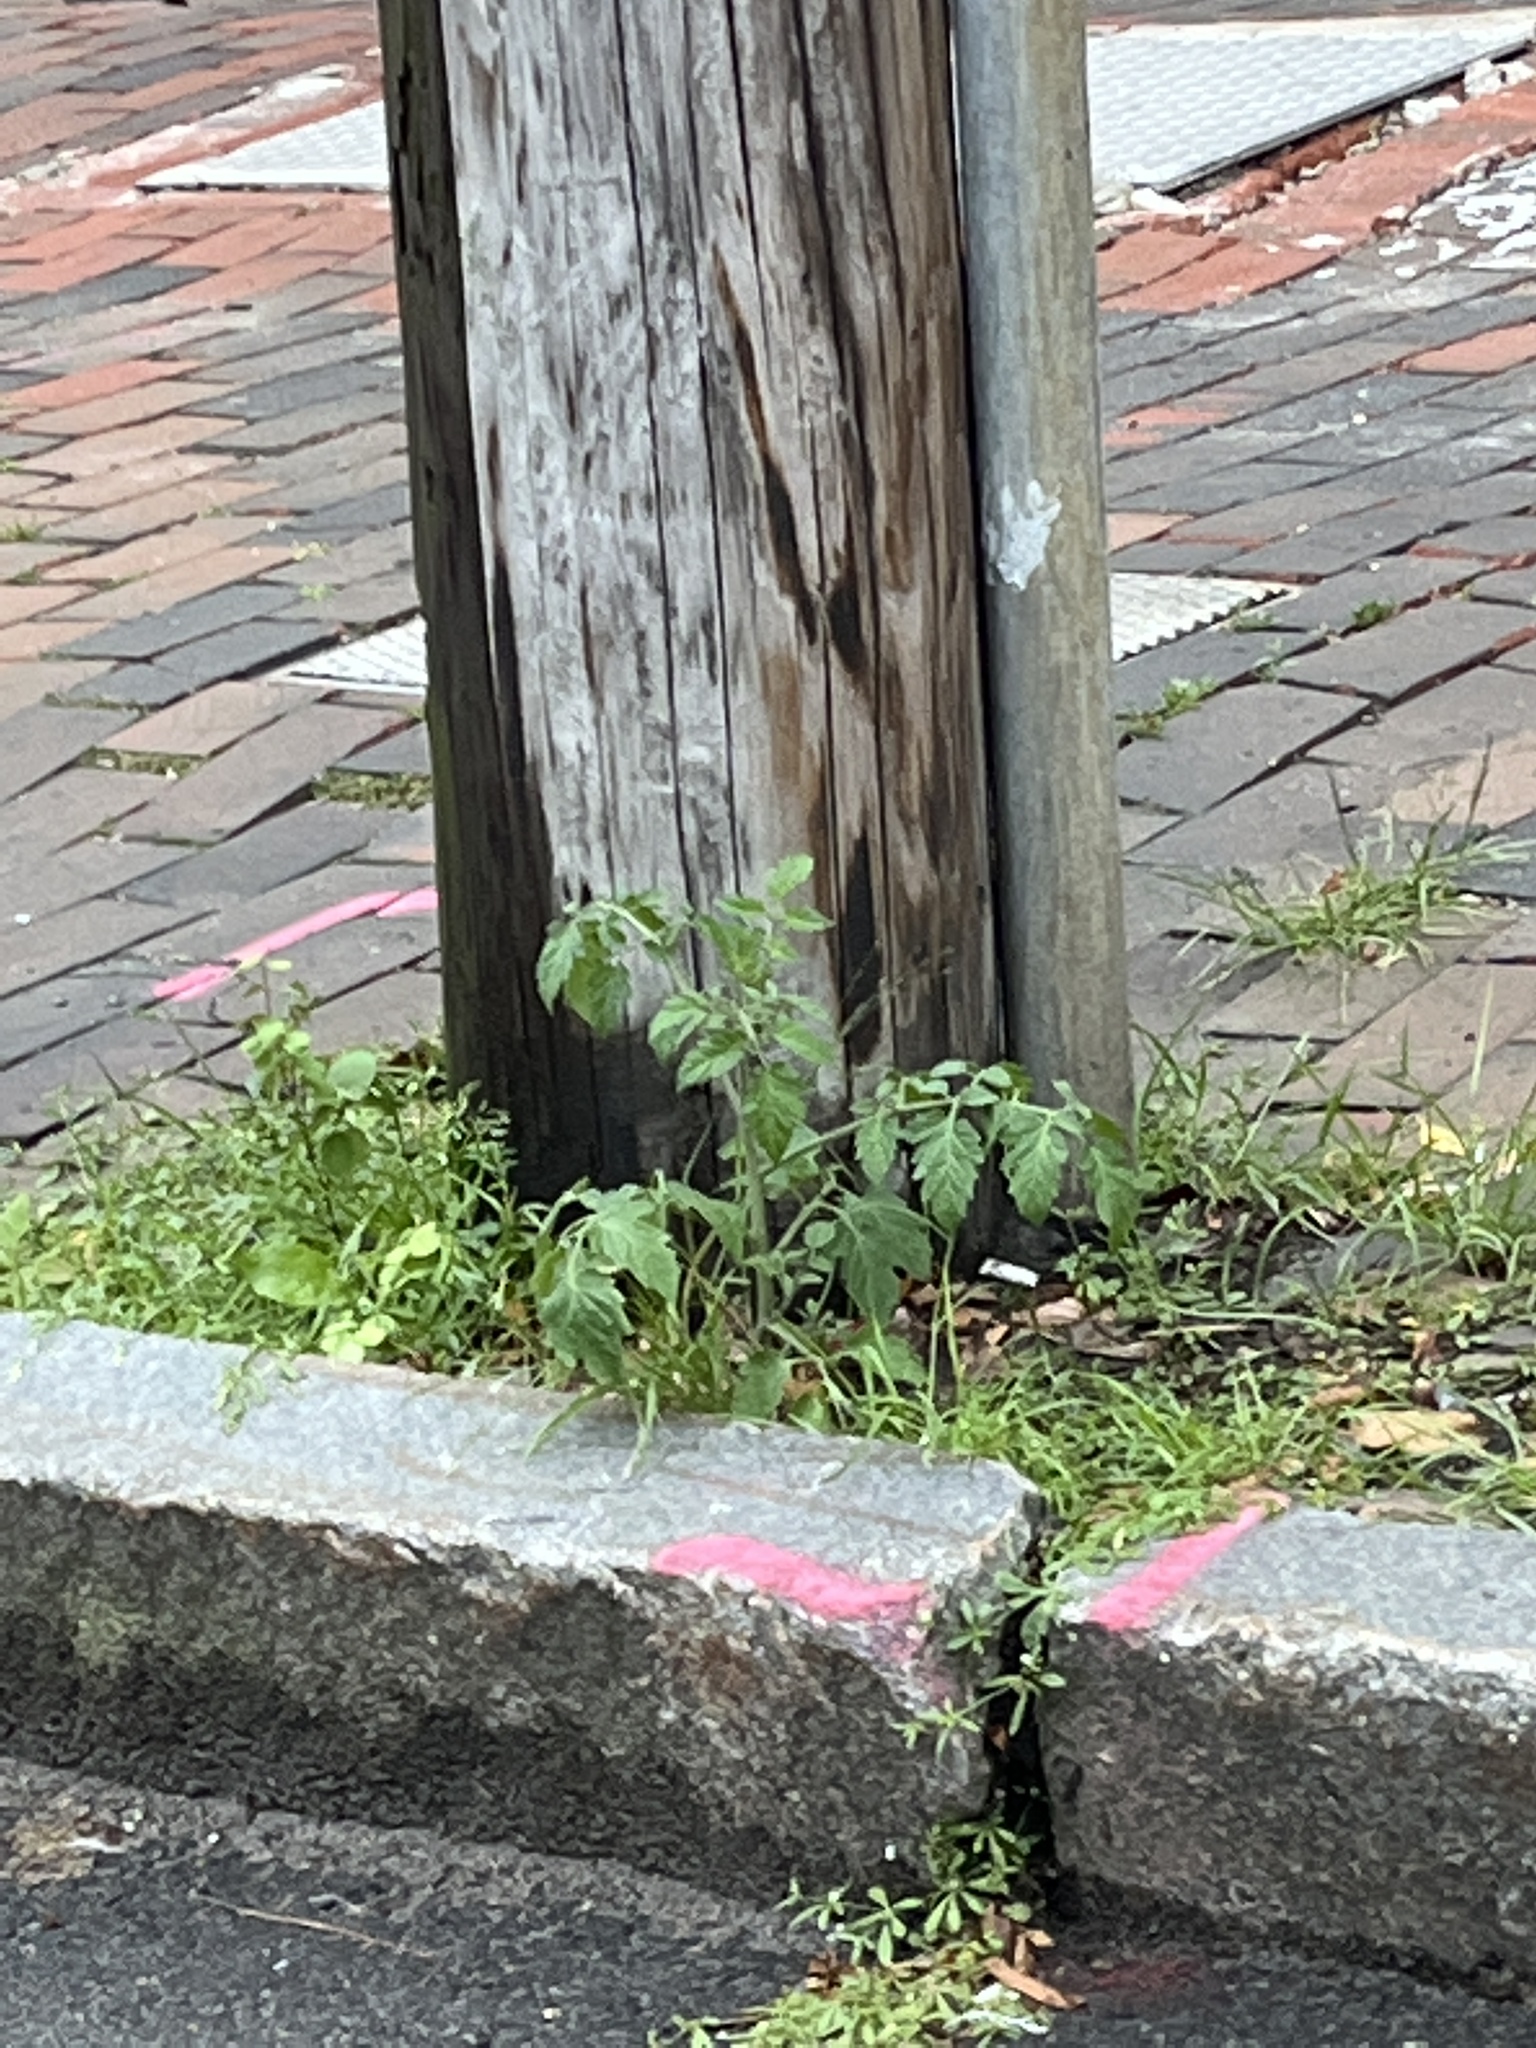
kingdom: Plantae
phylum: Tracheophyta
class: Magnoliopsida
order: Solanales
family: Solanaceae
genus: Solanum
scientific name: Solanum lycopersicum
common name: Garden tomato
